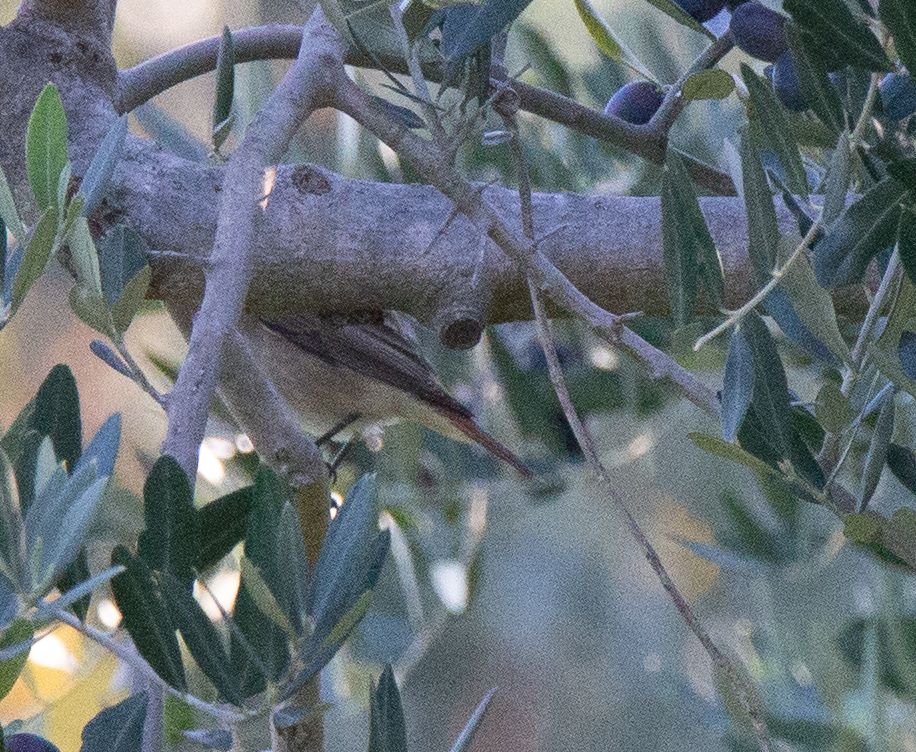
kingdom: Animalia
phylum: Chordata
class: Aves
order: Passeriformes
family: Muscicapidae
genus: Phoenicurus
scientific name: Phoenicurus ochruros
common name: Black redstart
